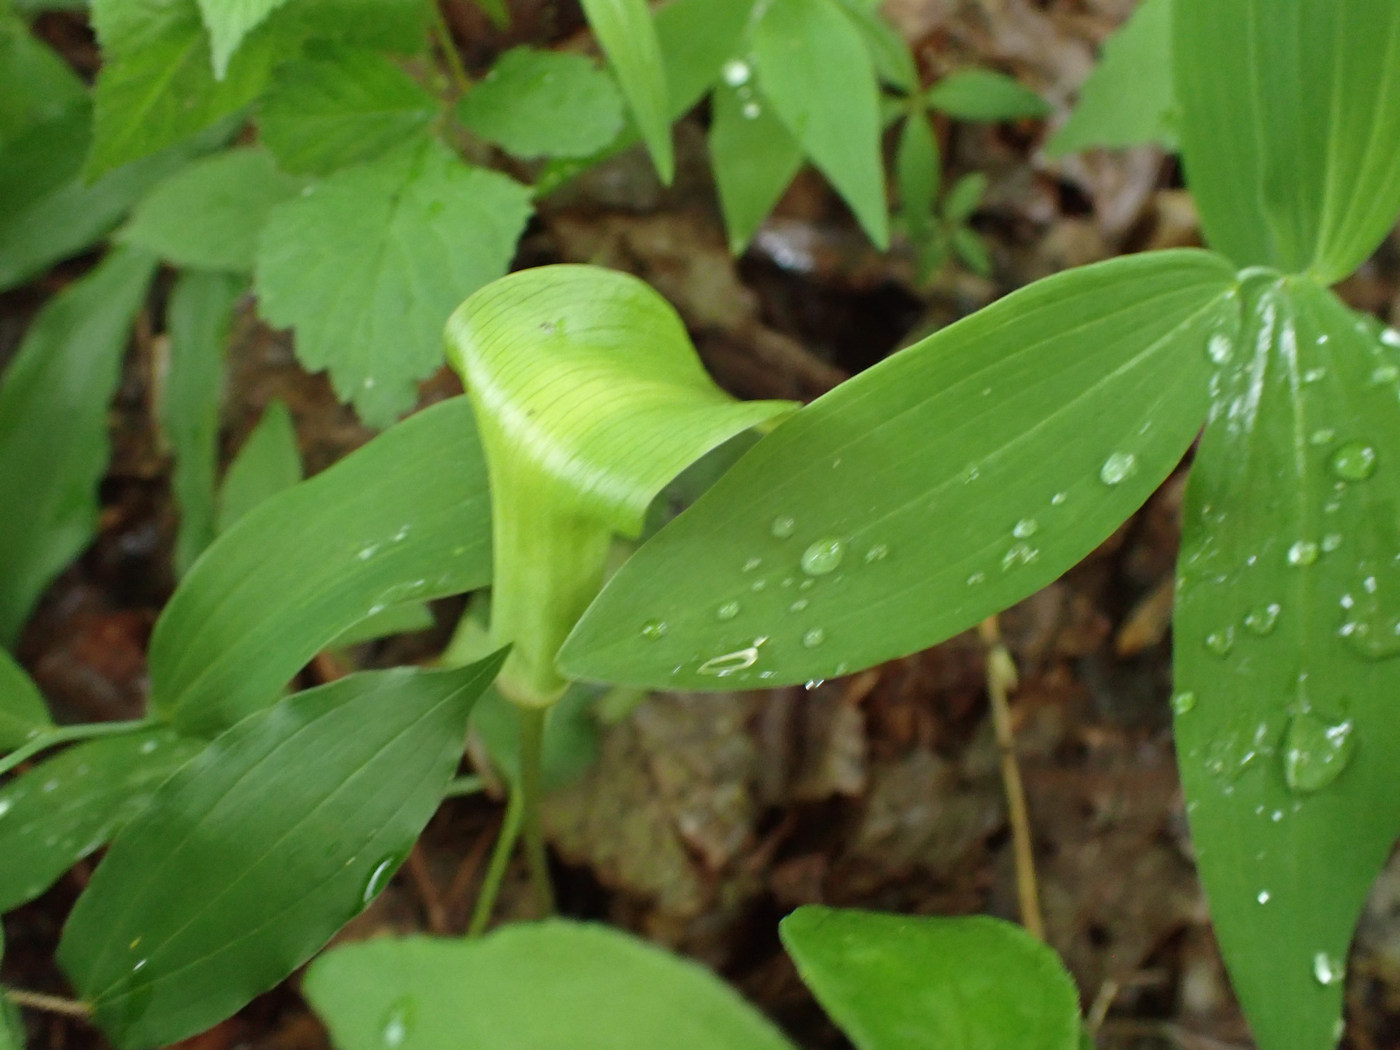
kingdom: Plantae
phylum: Tracheophyta
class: Liliopsida
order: Alismatales
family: Araceae
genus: Arisaema
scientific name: Arisaema quinatum
